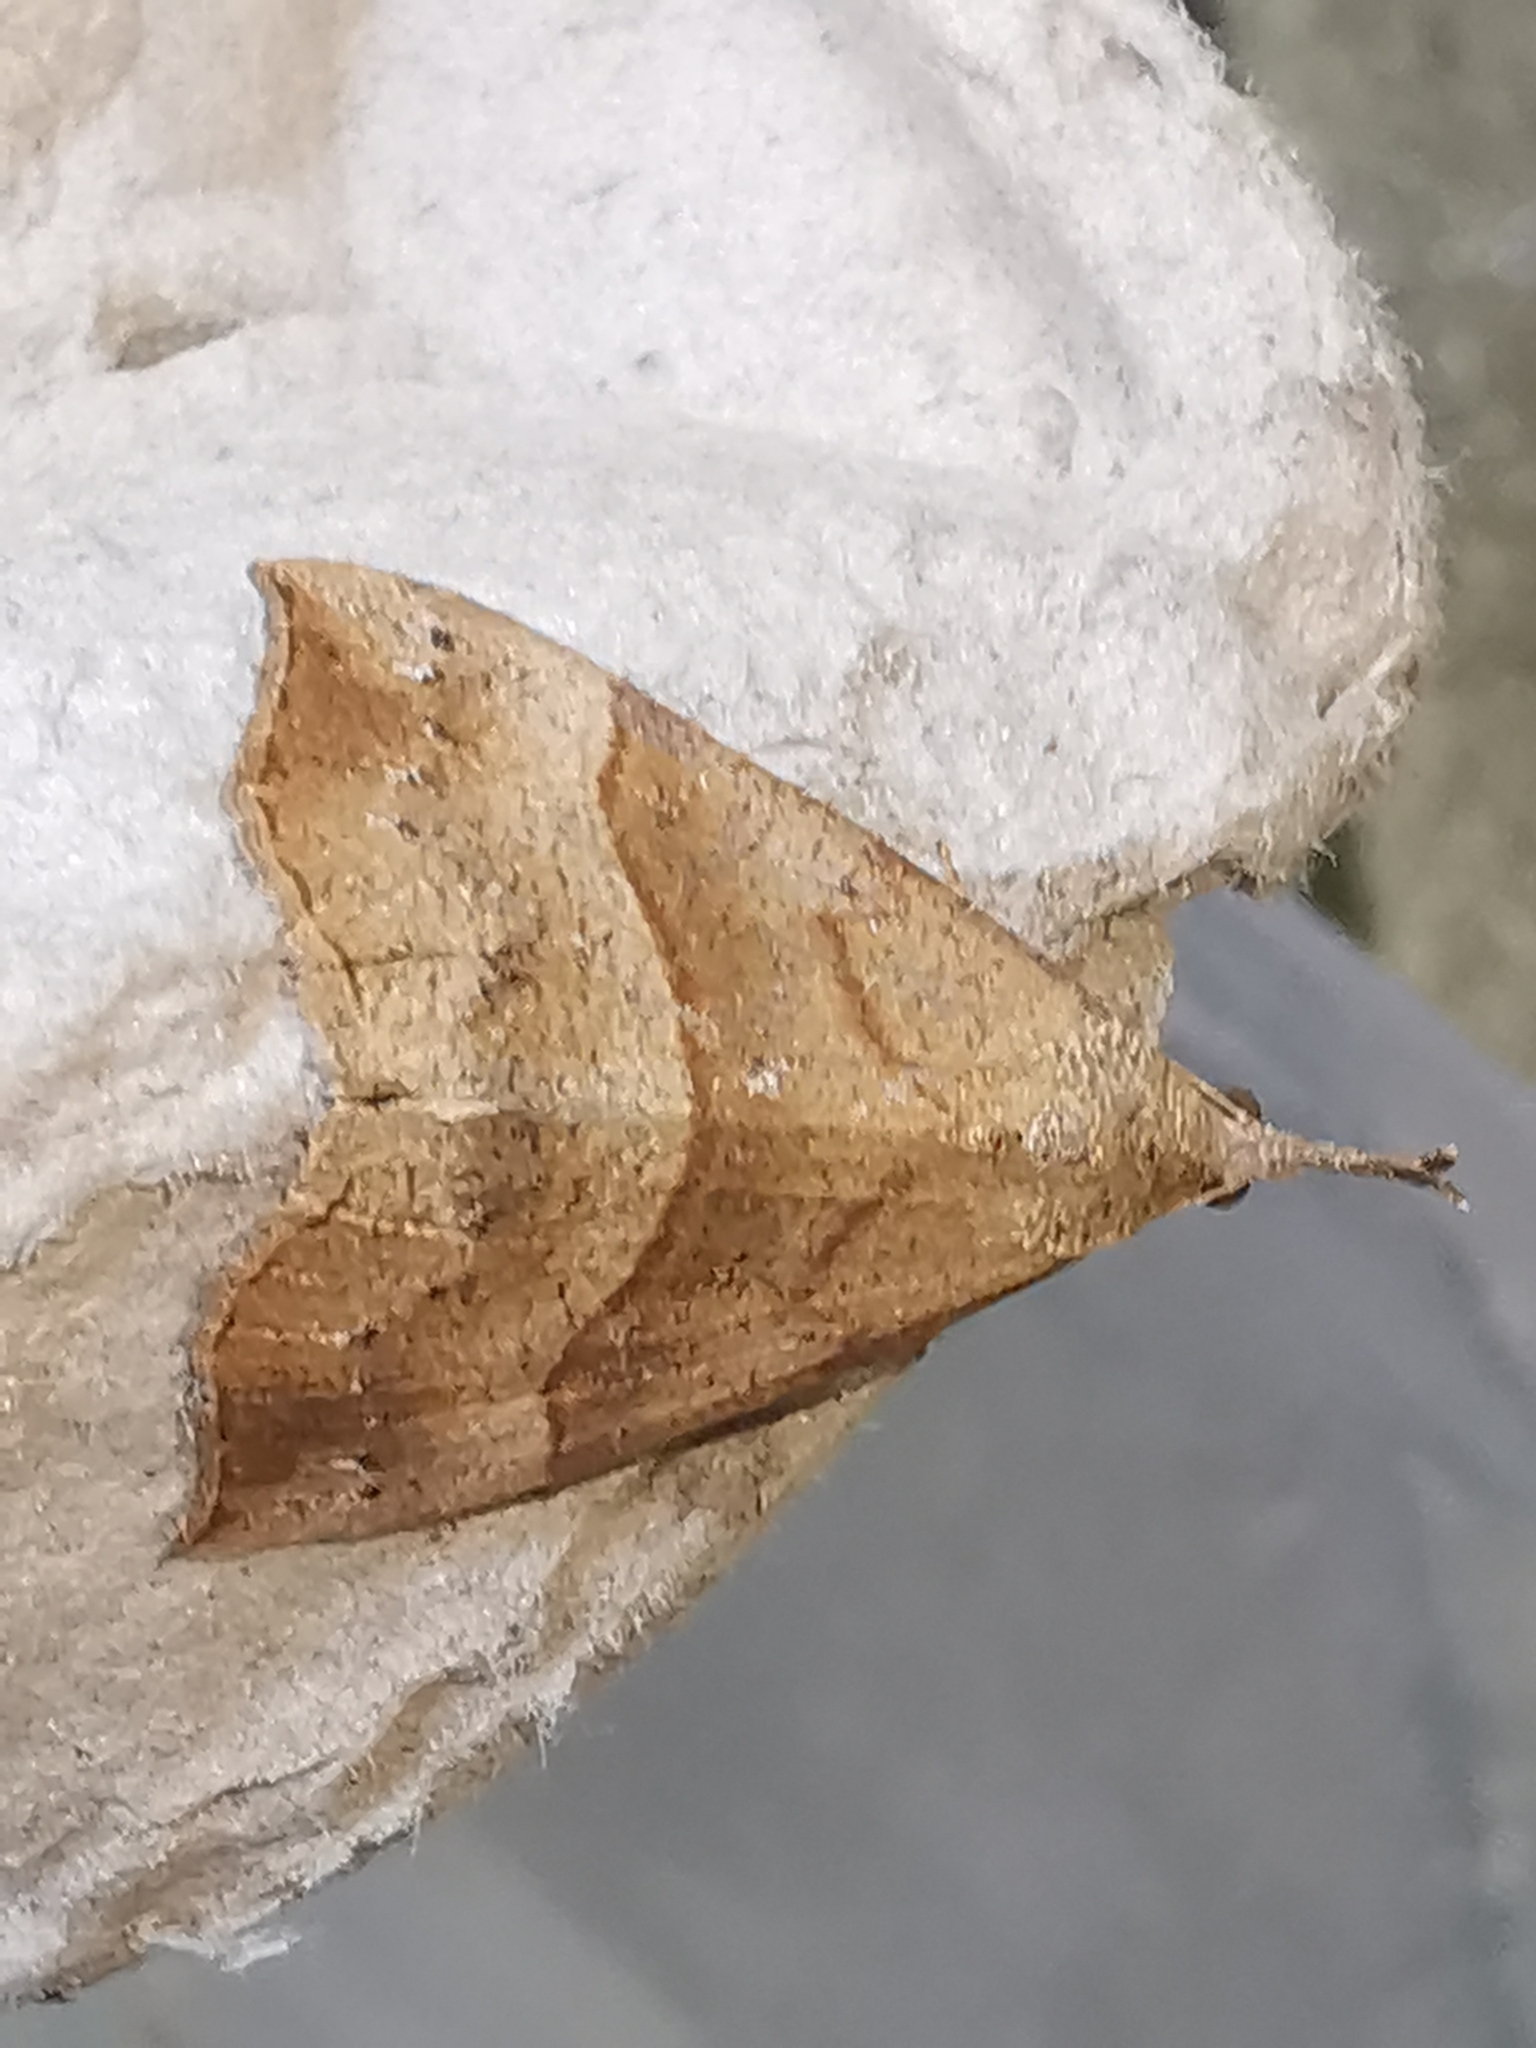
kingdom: Animalia
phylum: Arthropoda
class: Insecta
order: Lepidoptera
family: Erebidae
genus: Hypena
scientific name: Hypena proboscidalis
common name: Snout
